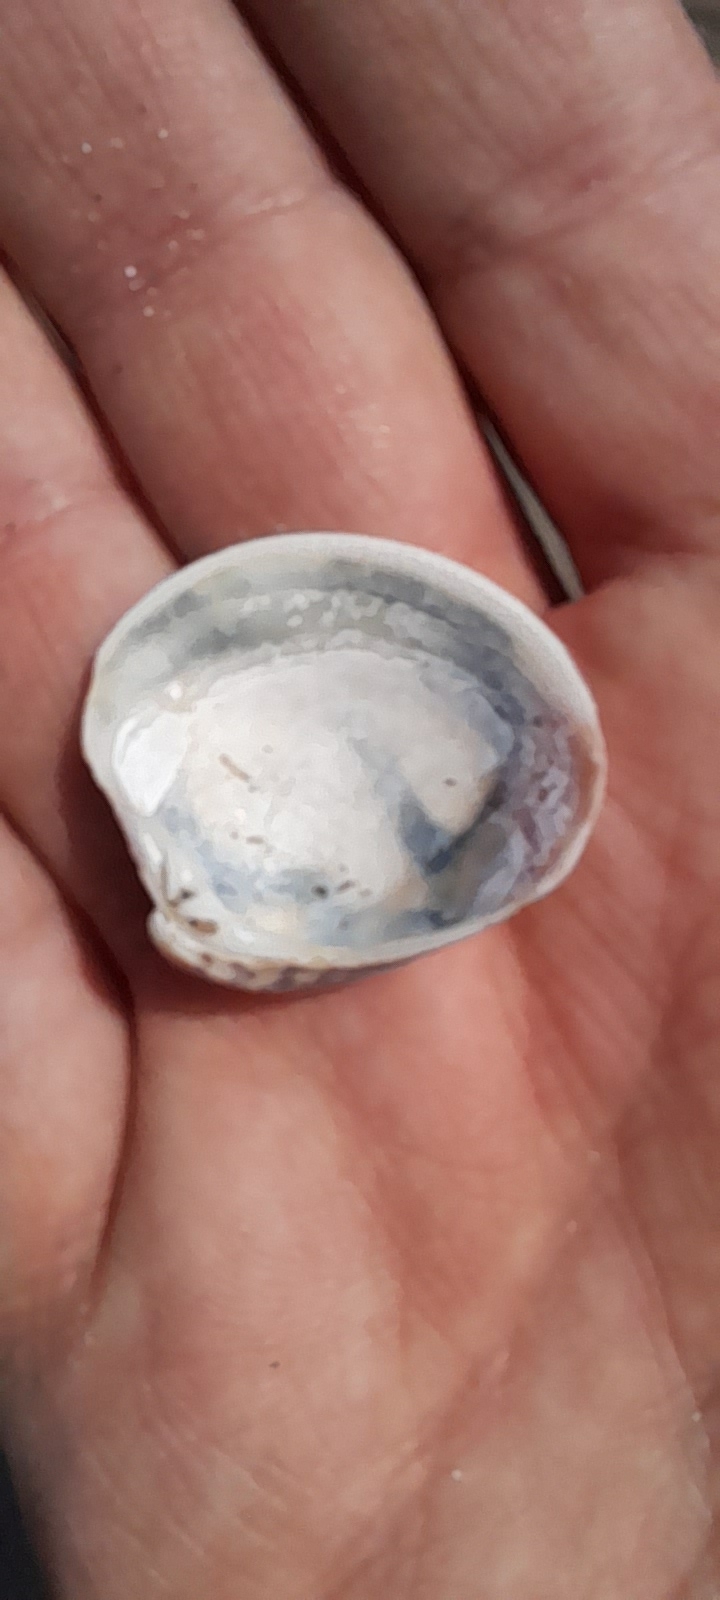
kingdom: Animalia
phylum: Mollusca
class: Bivalvia
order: Venerida
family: Veneridae
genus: Chamelea
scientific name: Chamelea gallina
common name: Chicken venus
